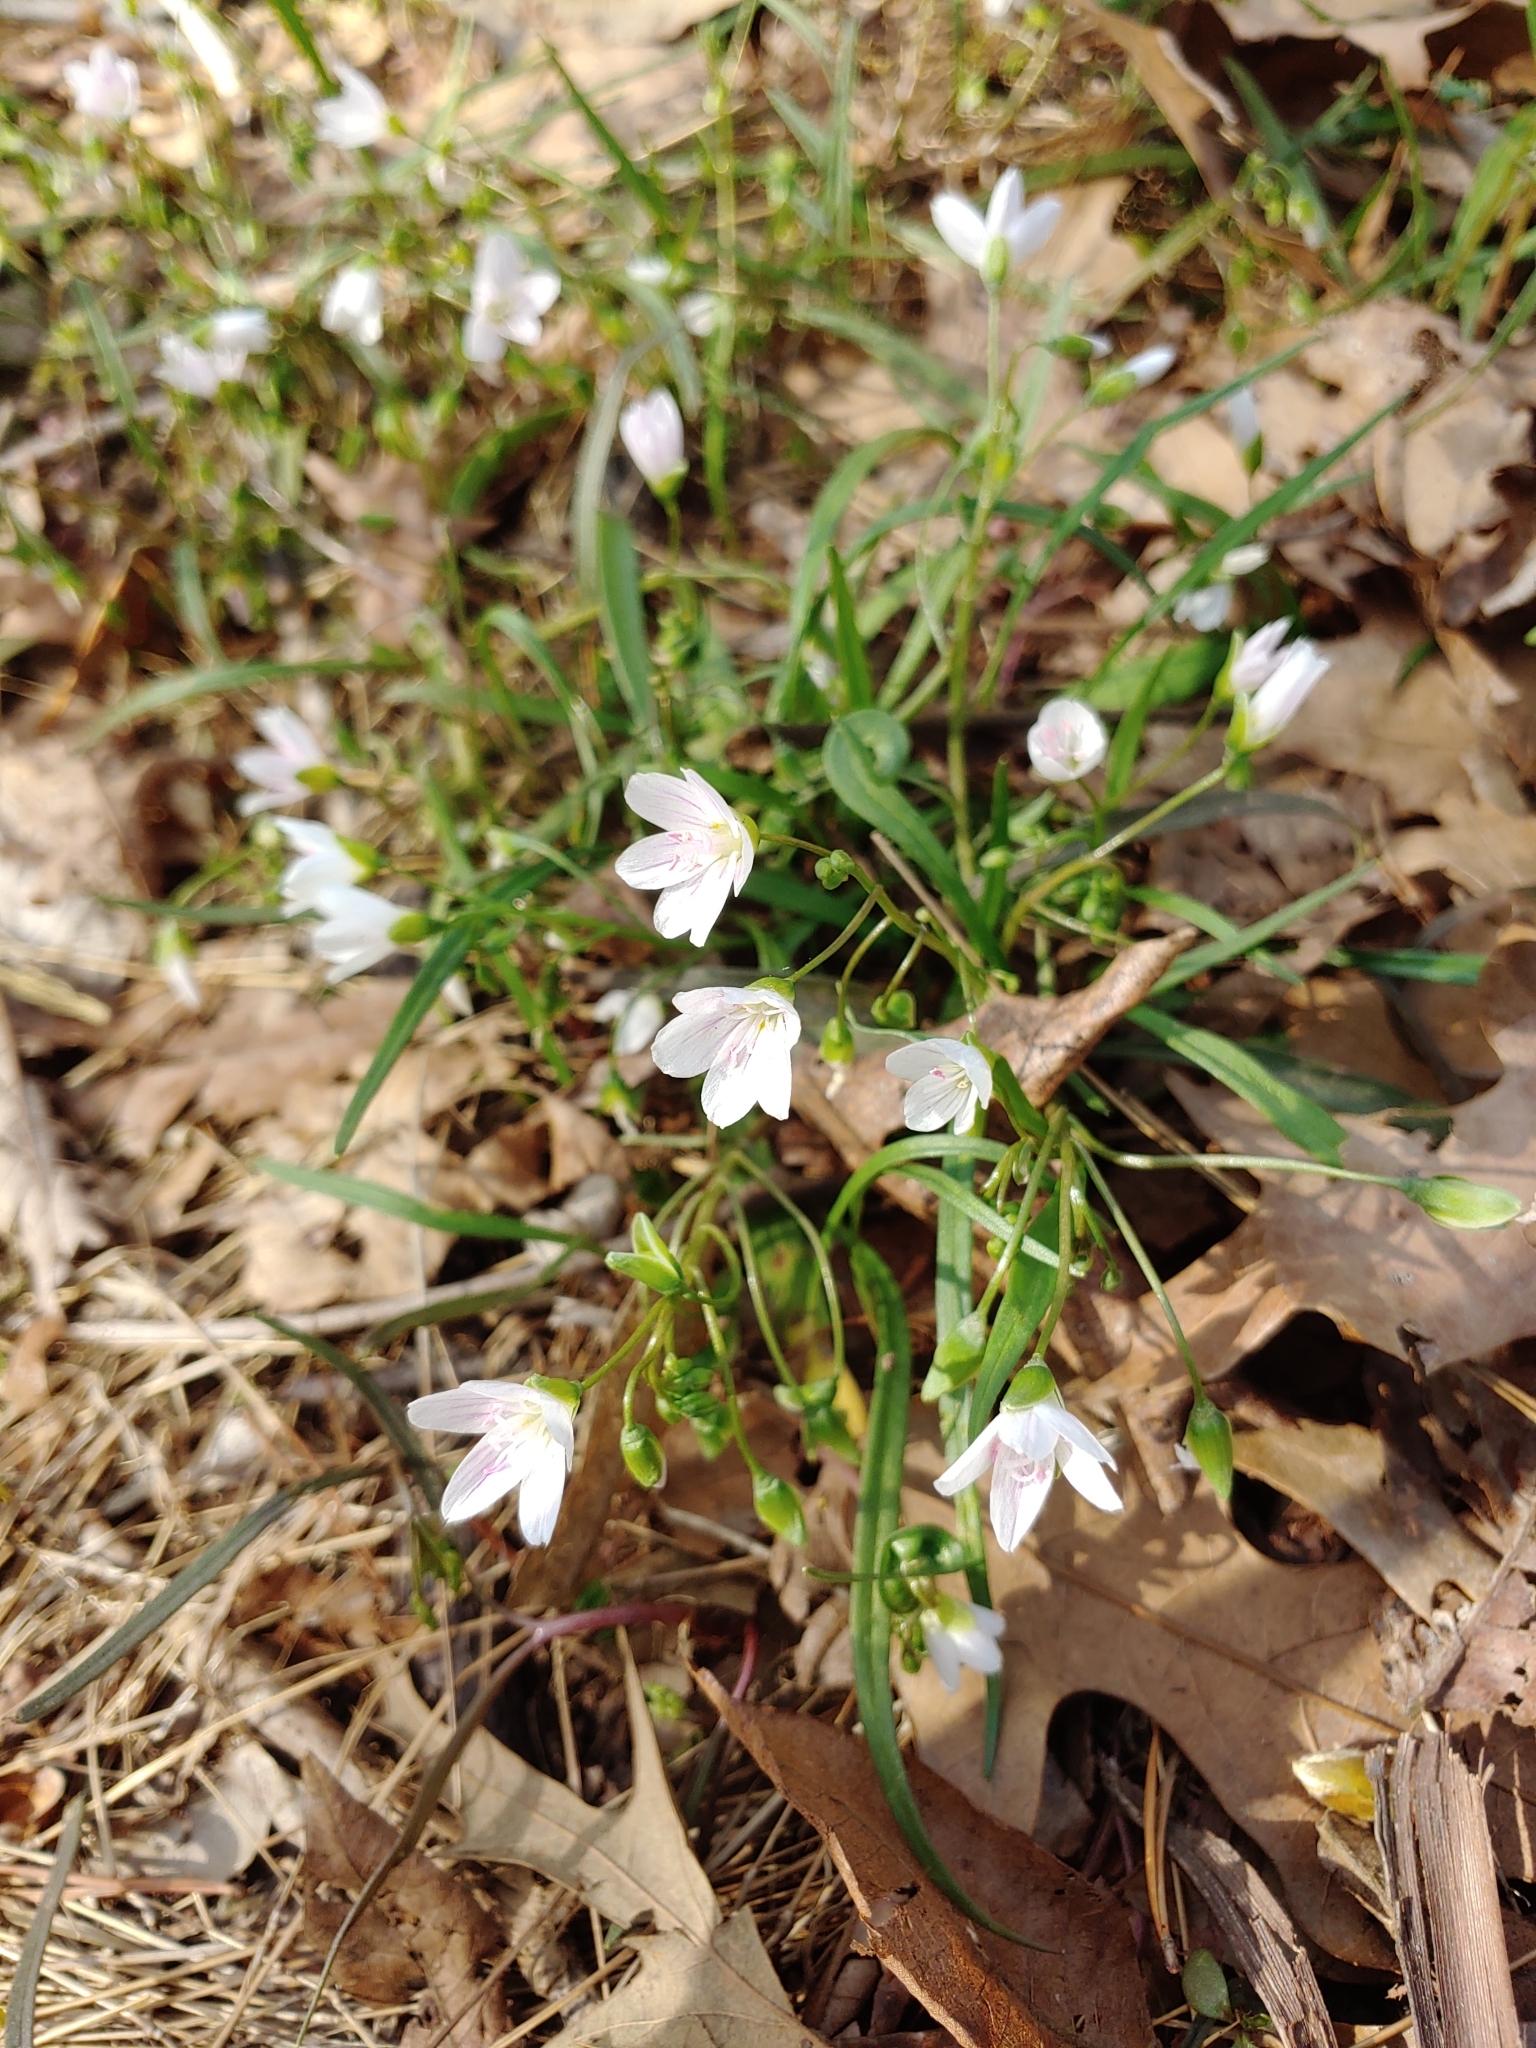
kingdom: Plantae
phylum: Tracheophyta
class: Magnoliopsida
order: Caryophyllales
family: Montiaceae
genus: Claytonia
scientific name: Claytonia virginica
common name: Virginia springbeauty
